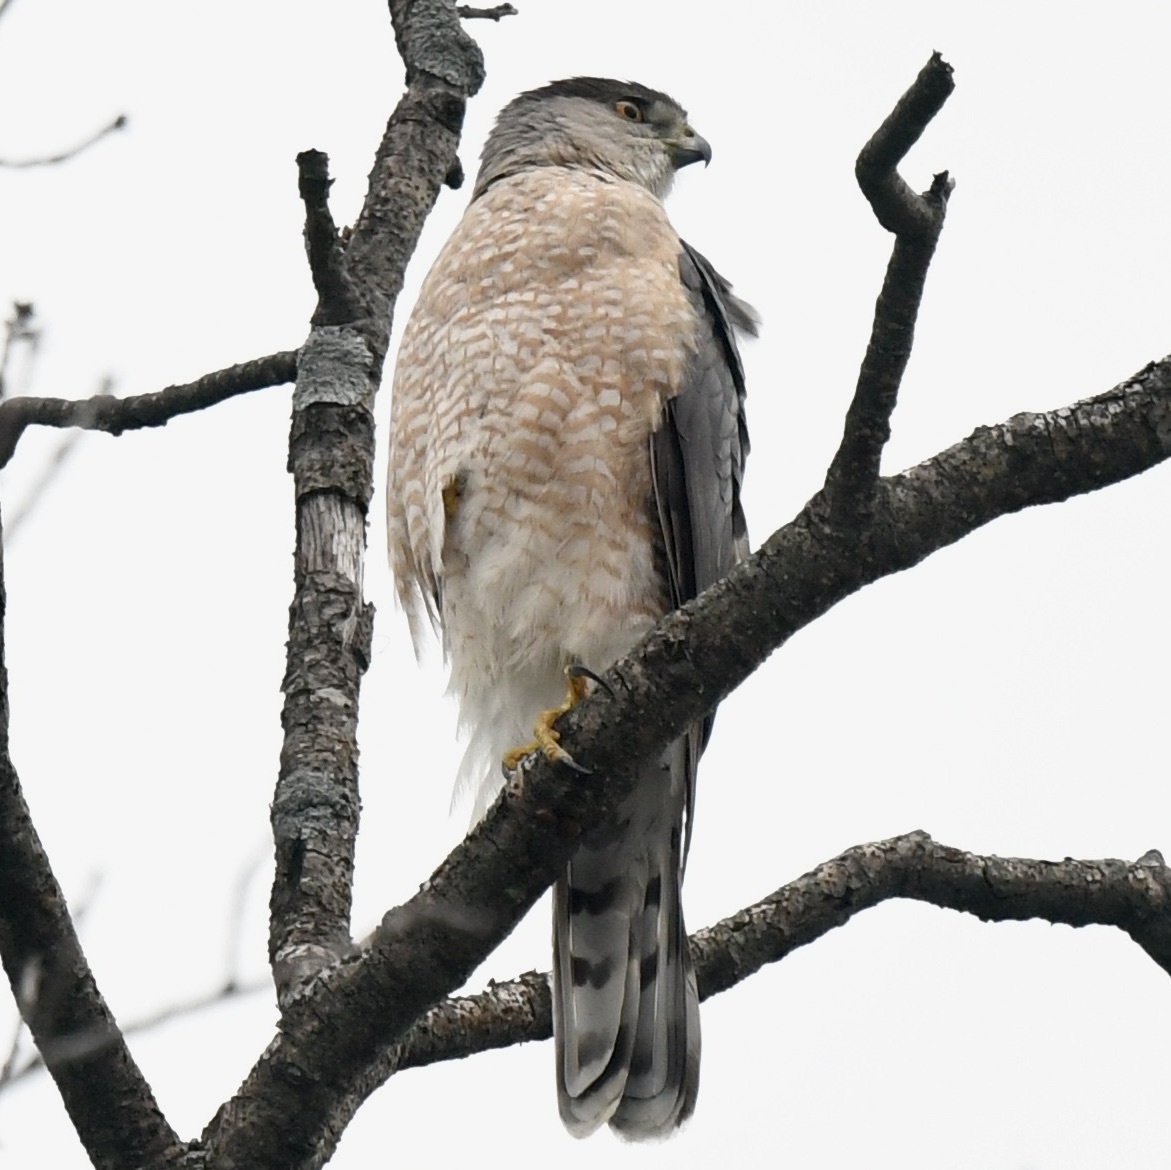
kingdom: Animalia
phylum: Chordata
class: Aves
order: Accipitriformes
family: Accipitridae
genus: Accipiter
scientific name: Accipiter cooperii
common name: Cooper's hawk
